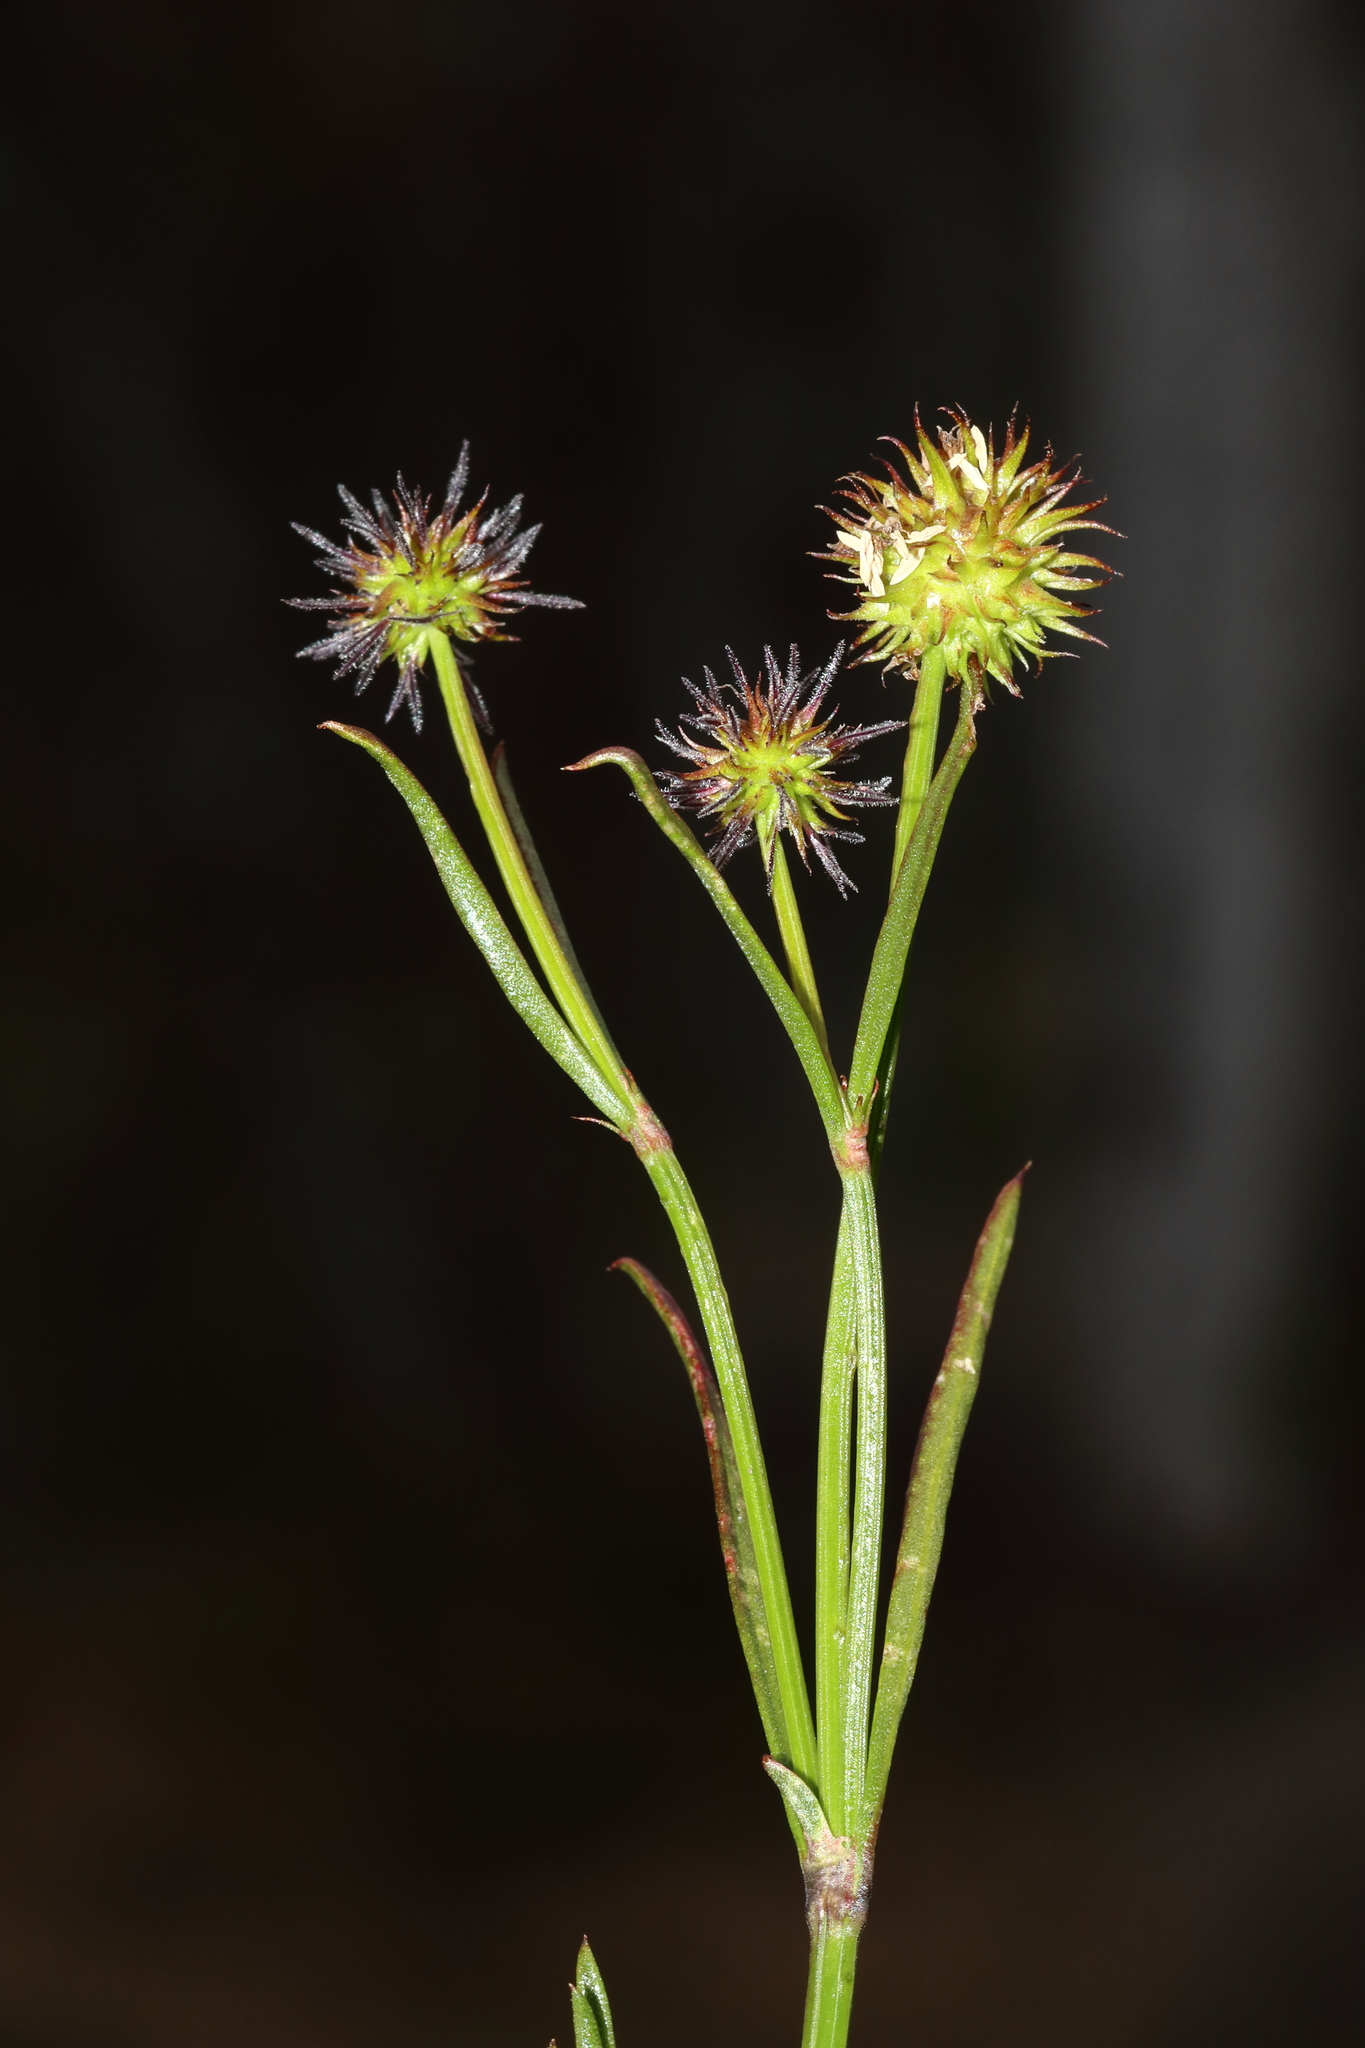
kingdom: Plantae
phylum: Tracheophyta
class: Magnoliopsida
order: Gentianales
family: Rubiaceae
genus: Opercularia
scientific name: Opercularia vaginata
